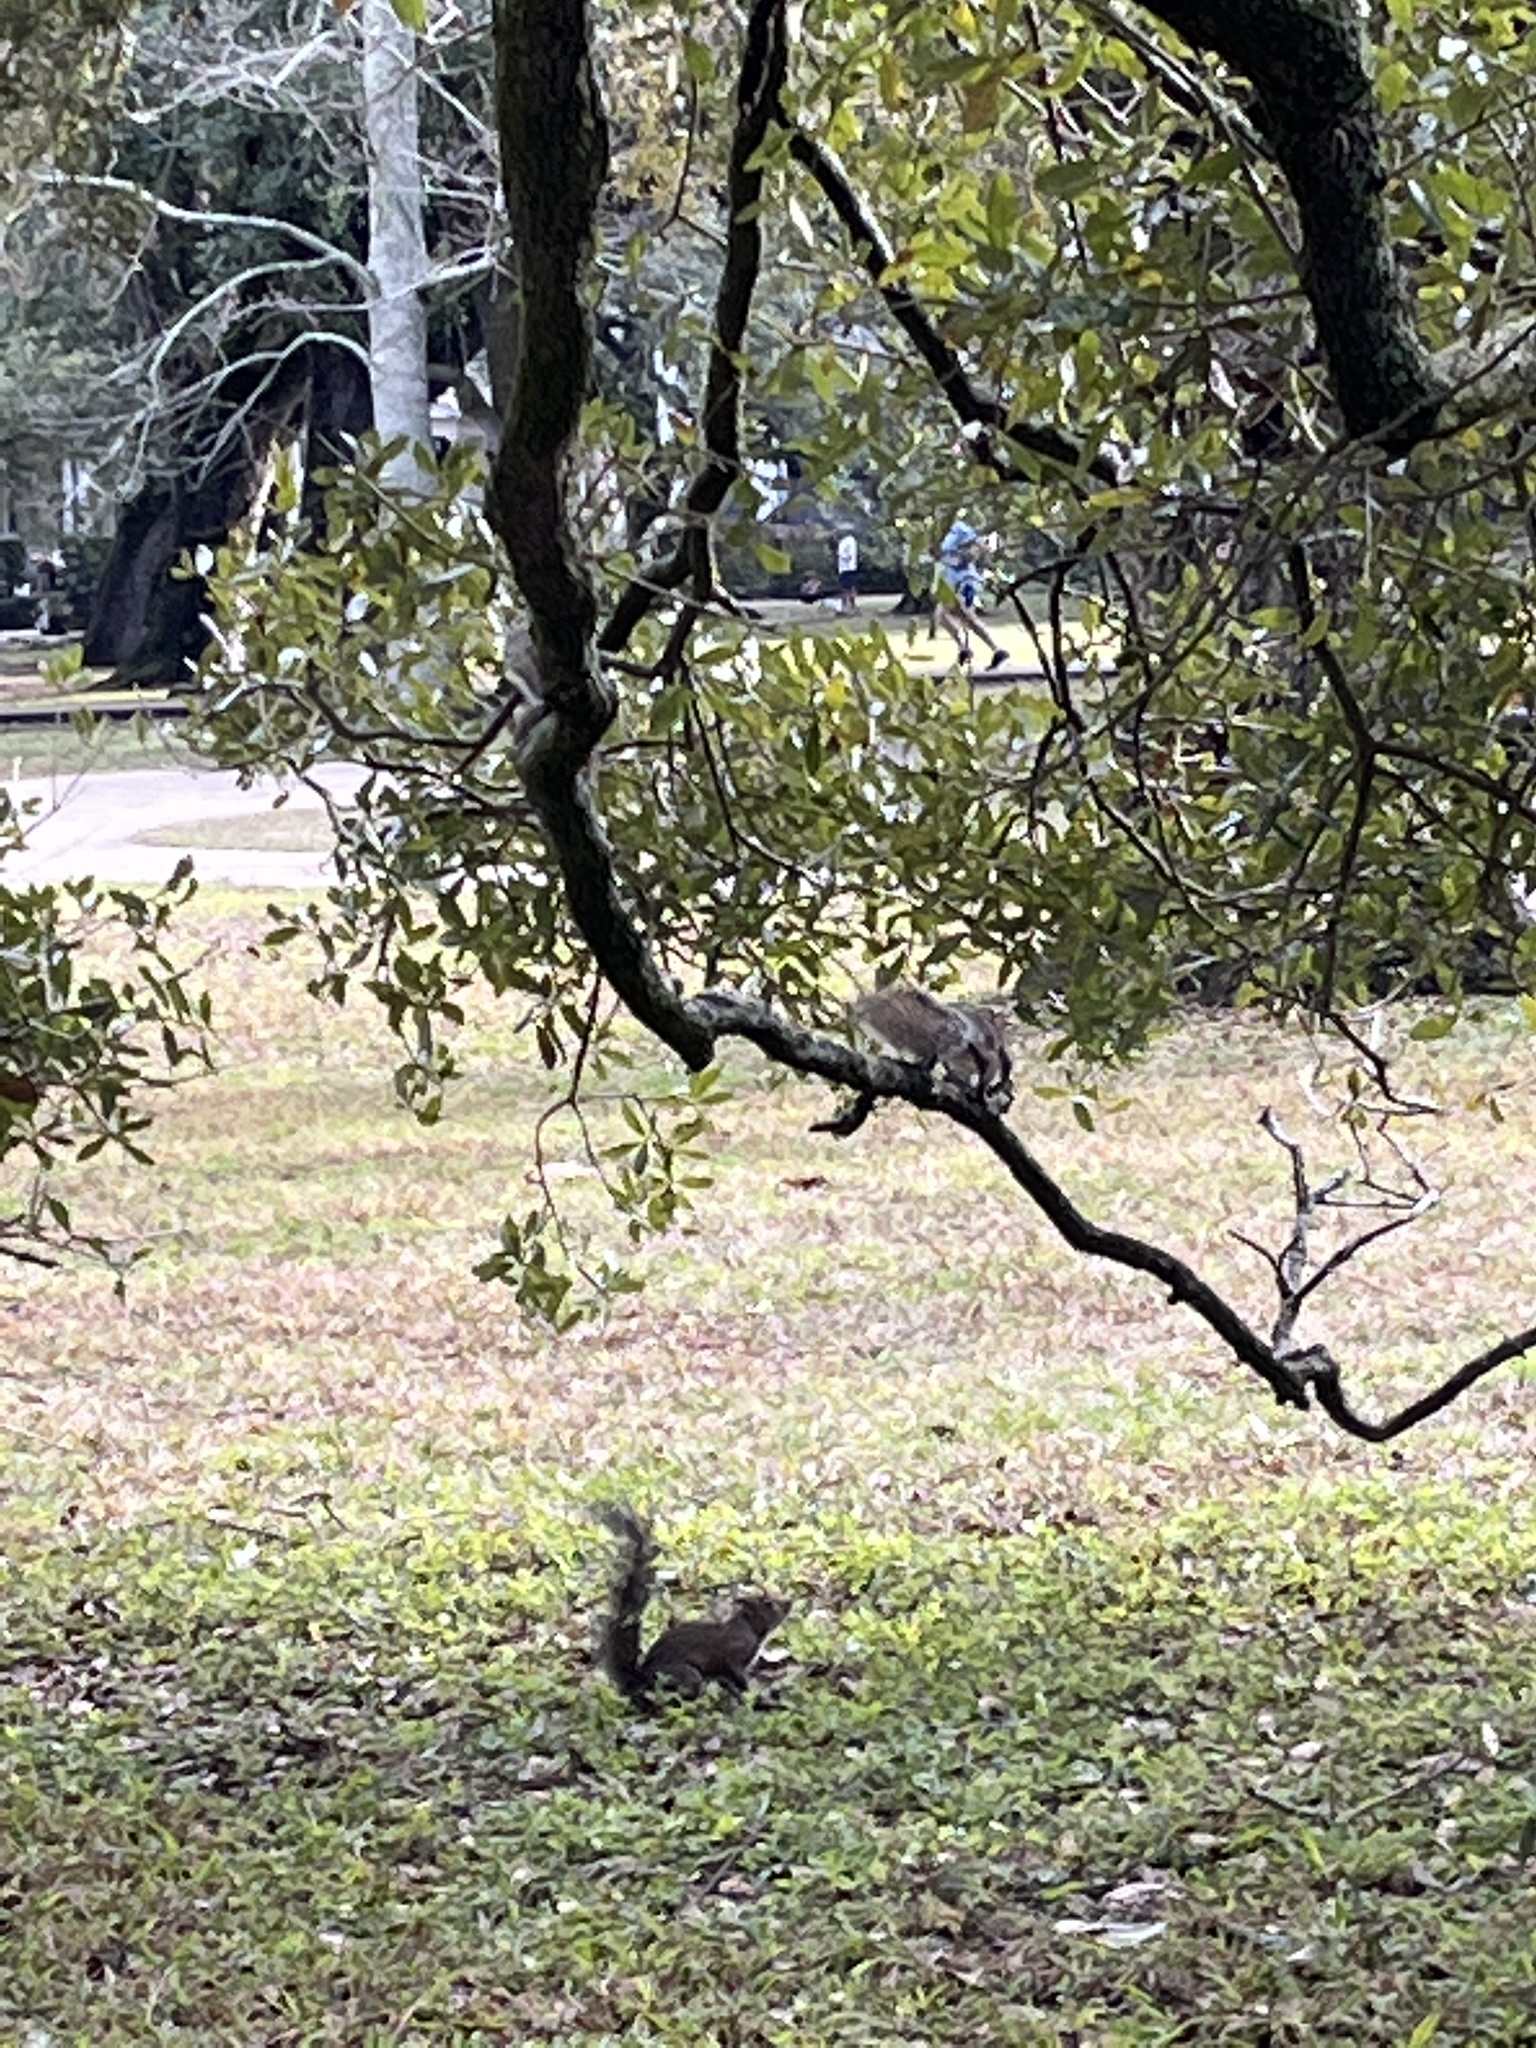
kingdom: Animalia
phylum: Chordata
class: Mammalia
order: Rodentia
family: Sciuridae
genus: Sciurus
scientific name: Sciurus carolinensis
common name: Eastern gray squirrel
